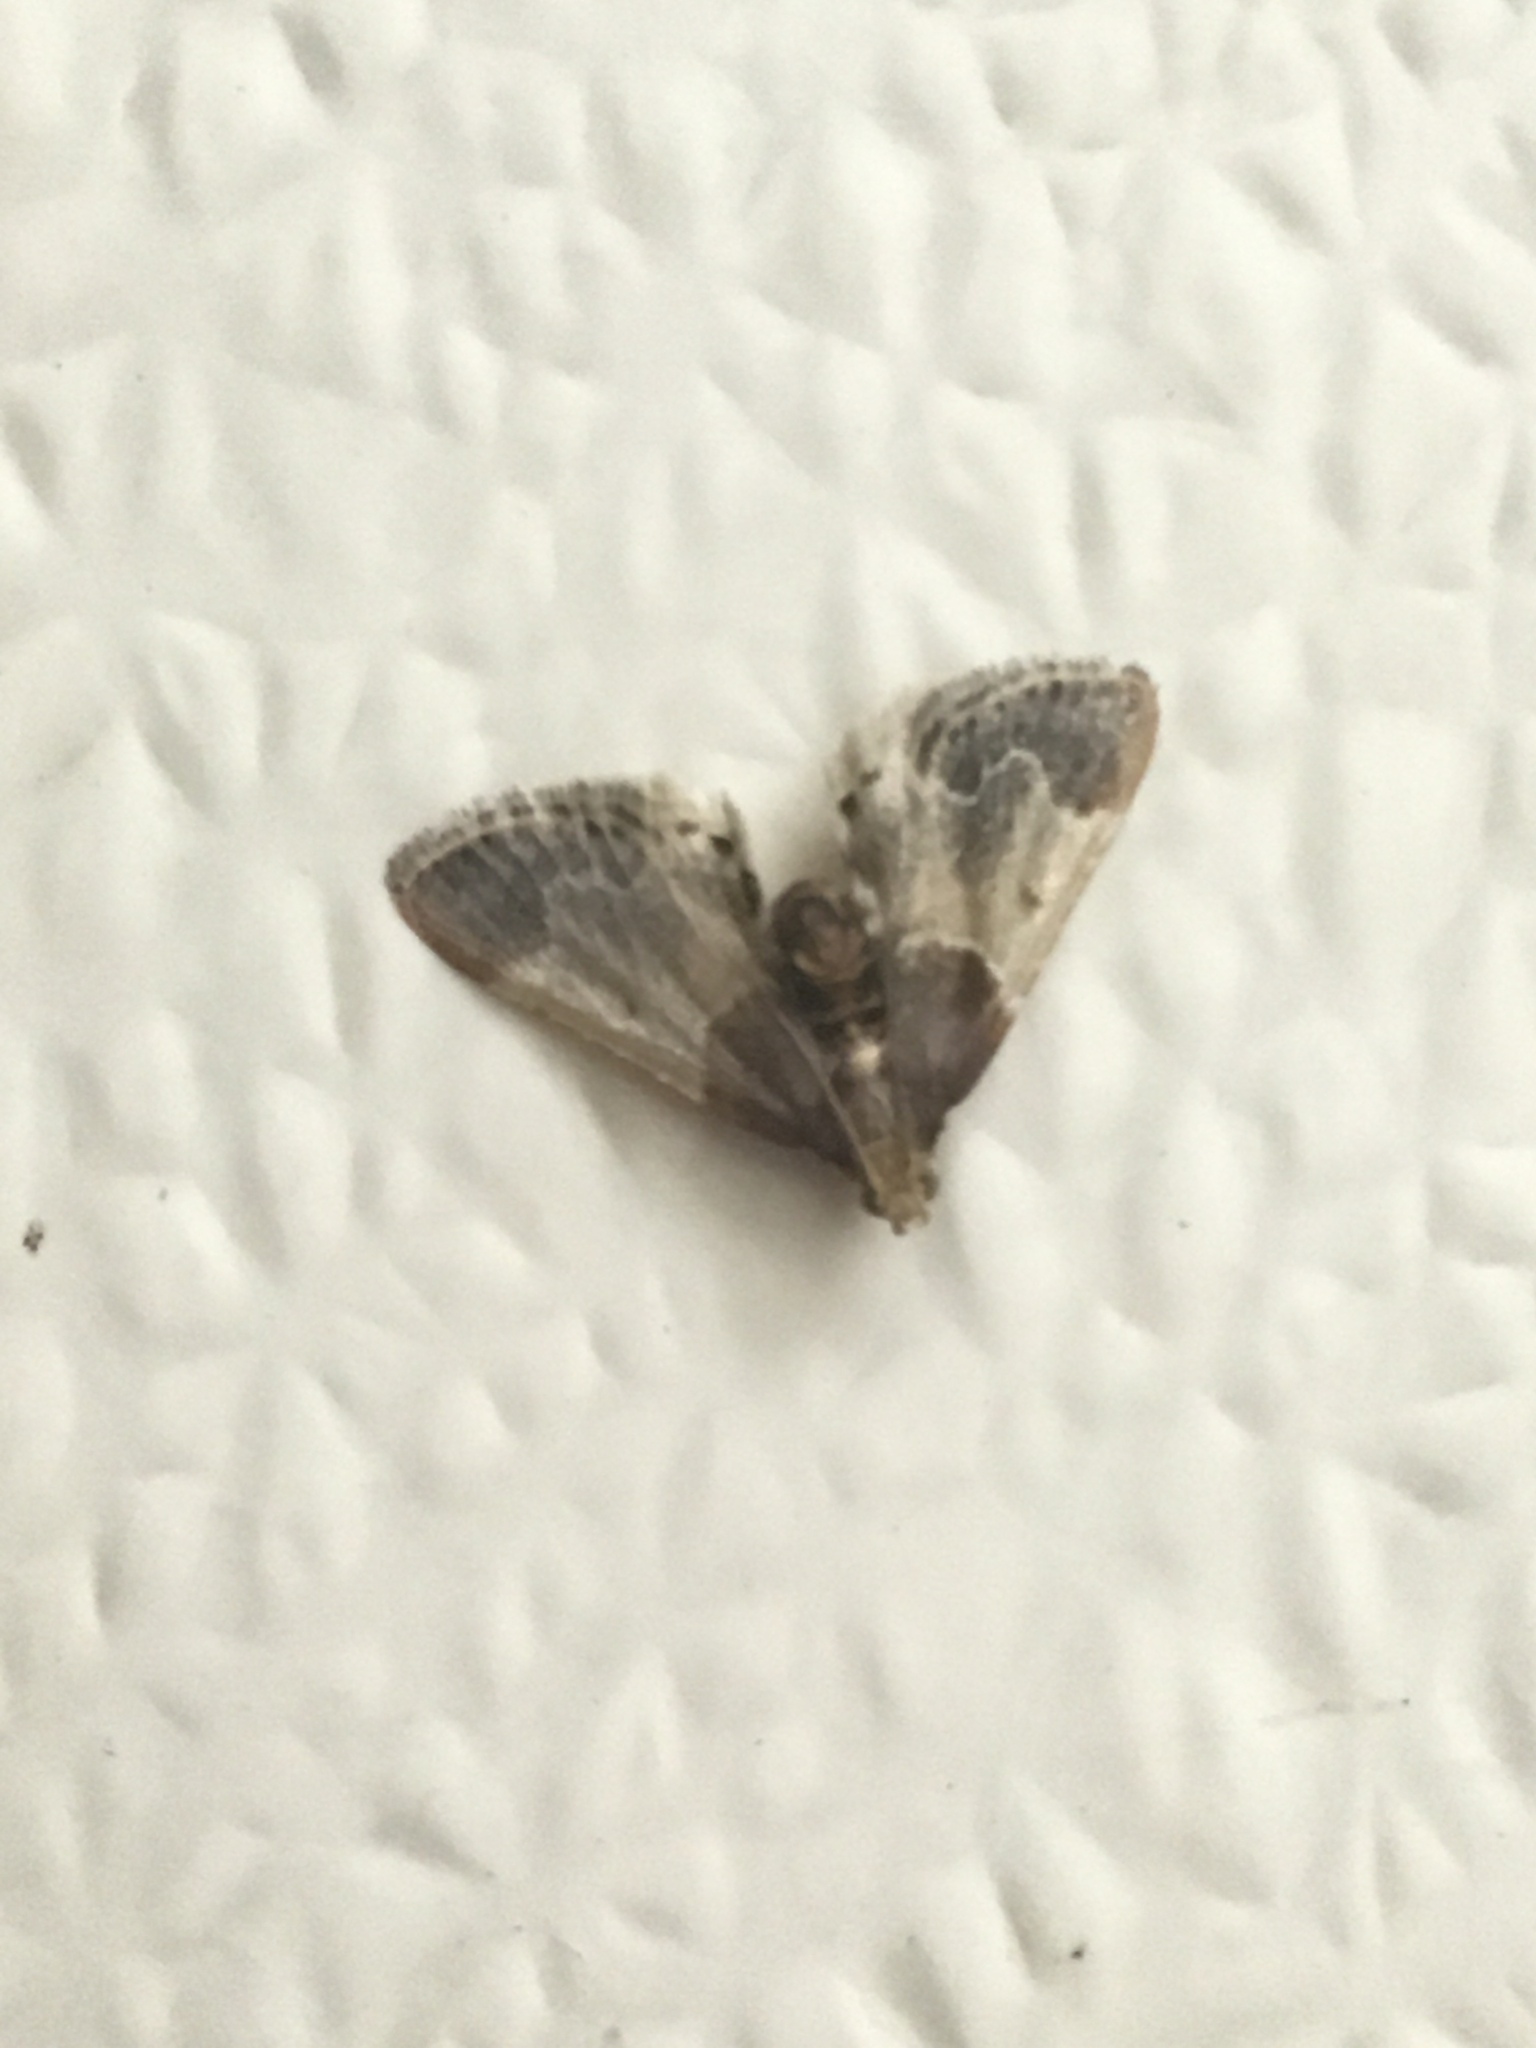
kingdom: Animalia
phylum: Arthropoda
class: Insecta
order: Lepidoptera
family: Pyralidae
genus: Pyralis
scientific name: Pyralis farinalis
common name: Meal moth
